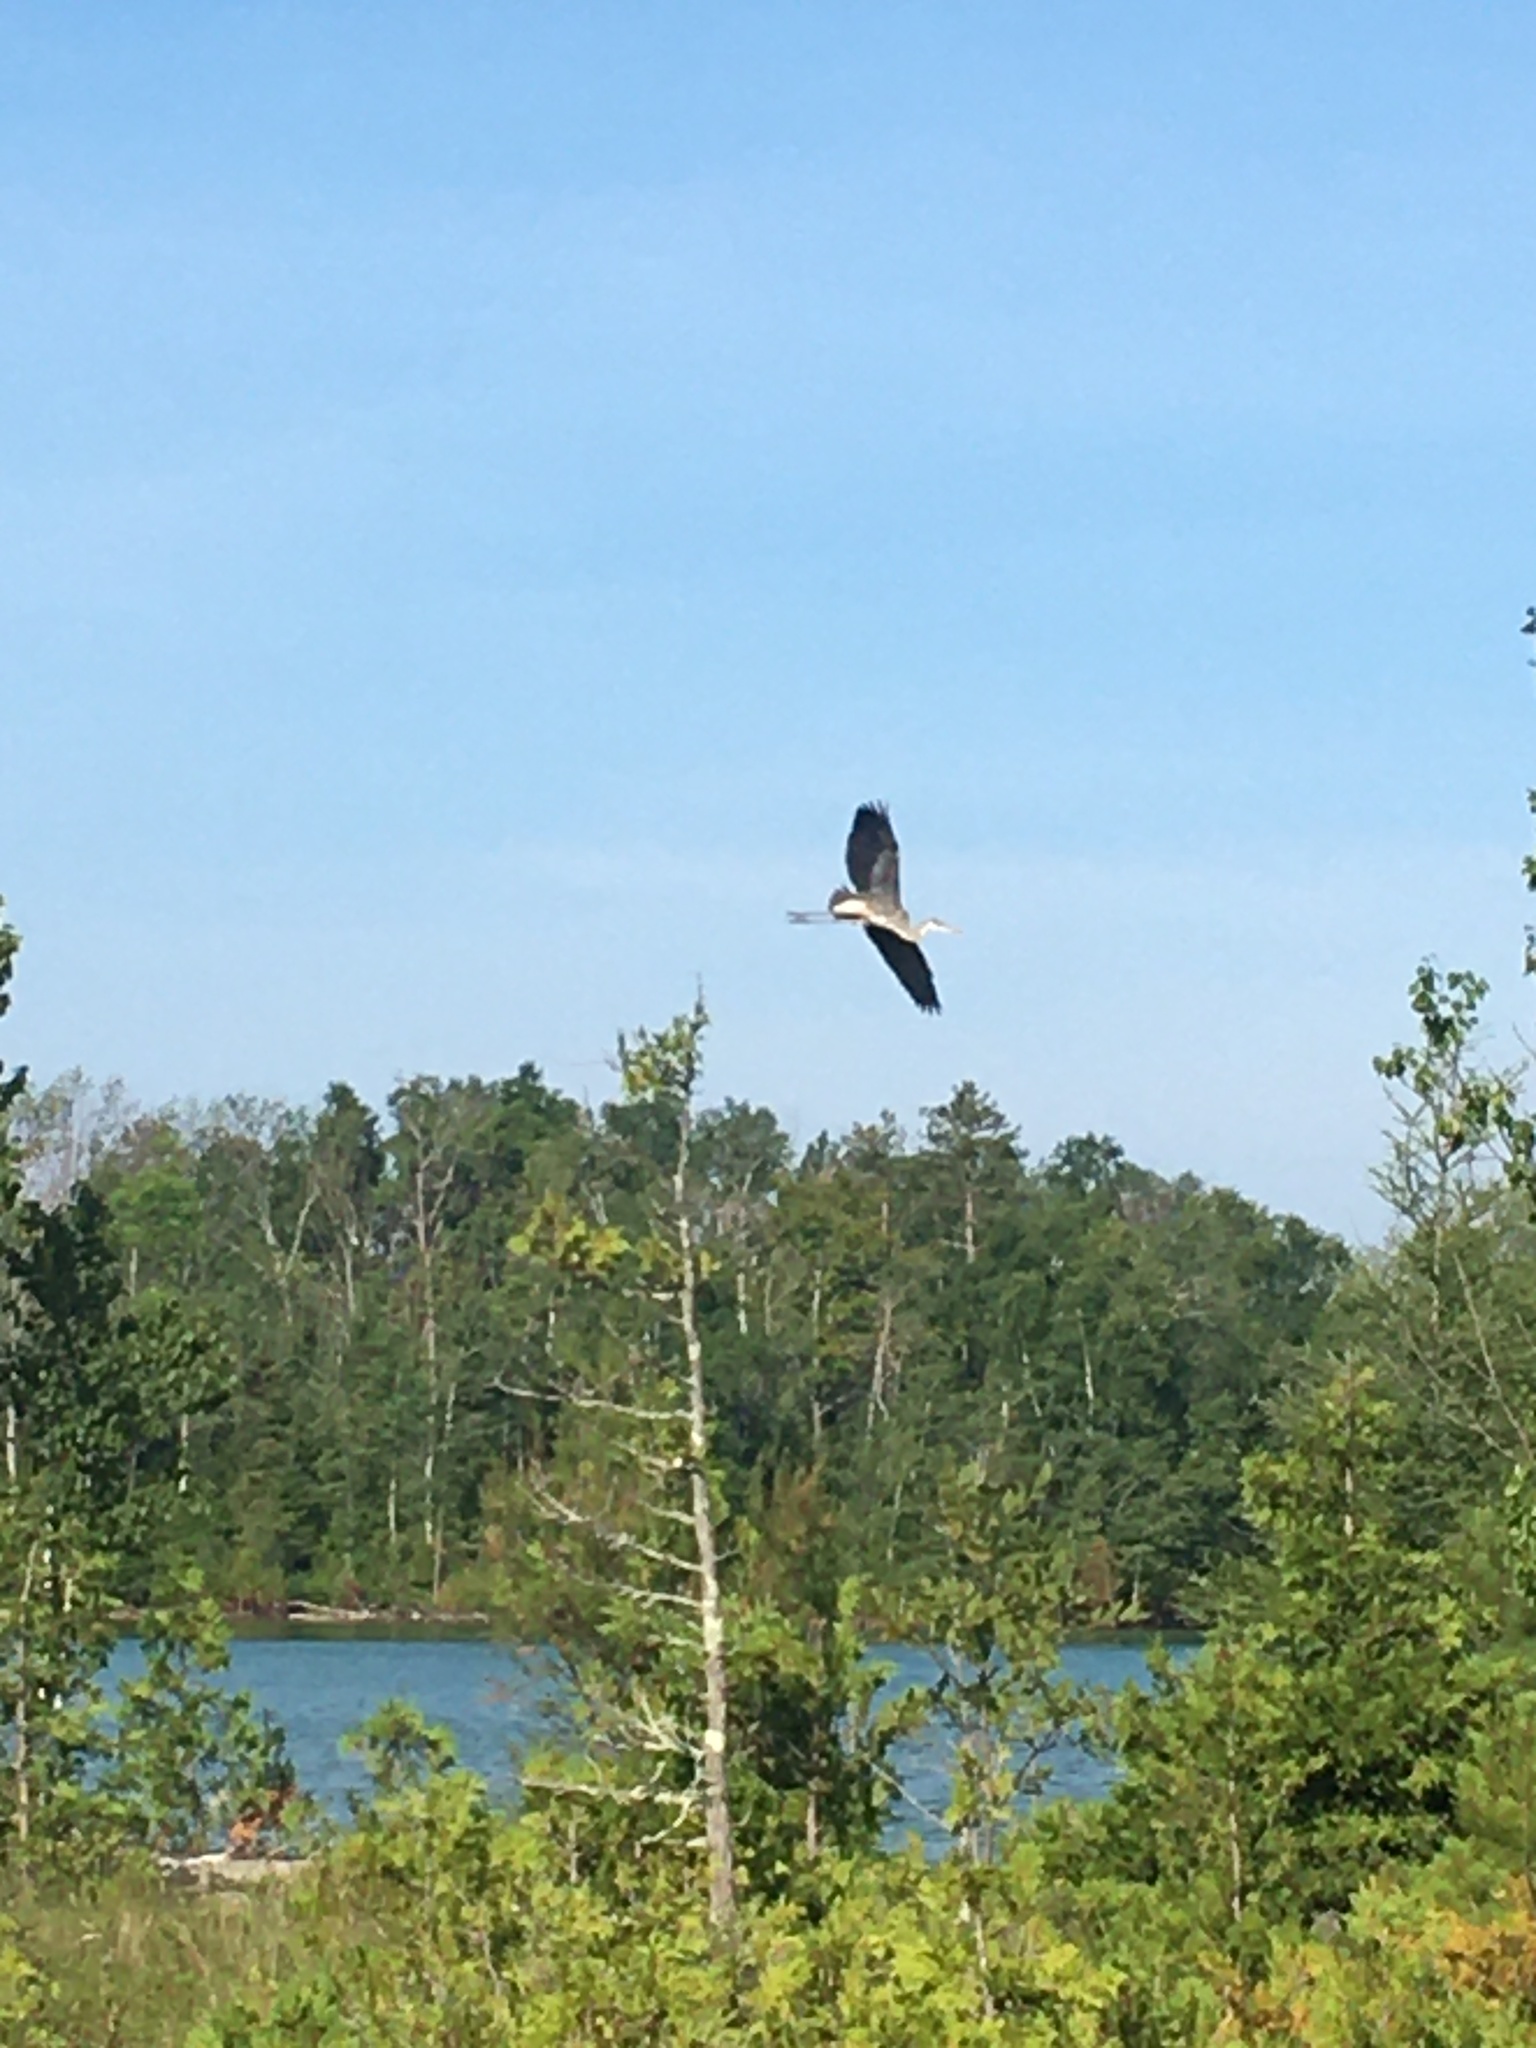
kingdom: Animalia
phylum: Chordata
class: Aves
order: Pelecaniformes
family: Ardeidae
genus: Ardea
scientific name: Ardea herodias
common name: Great blue heron
